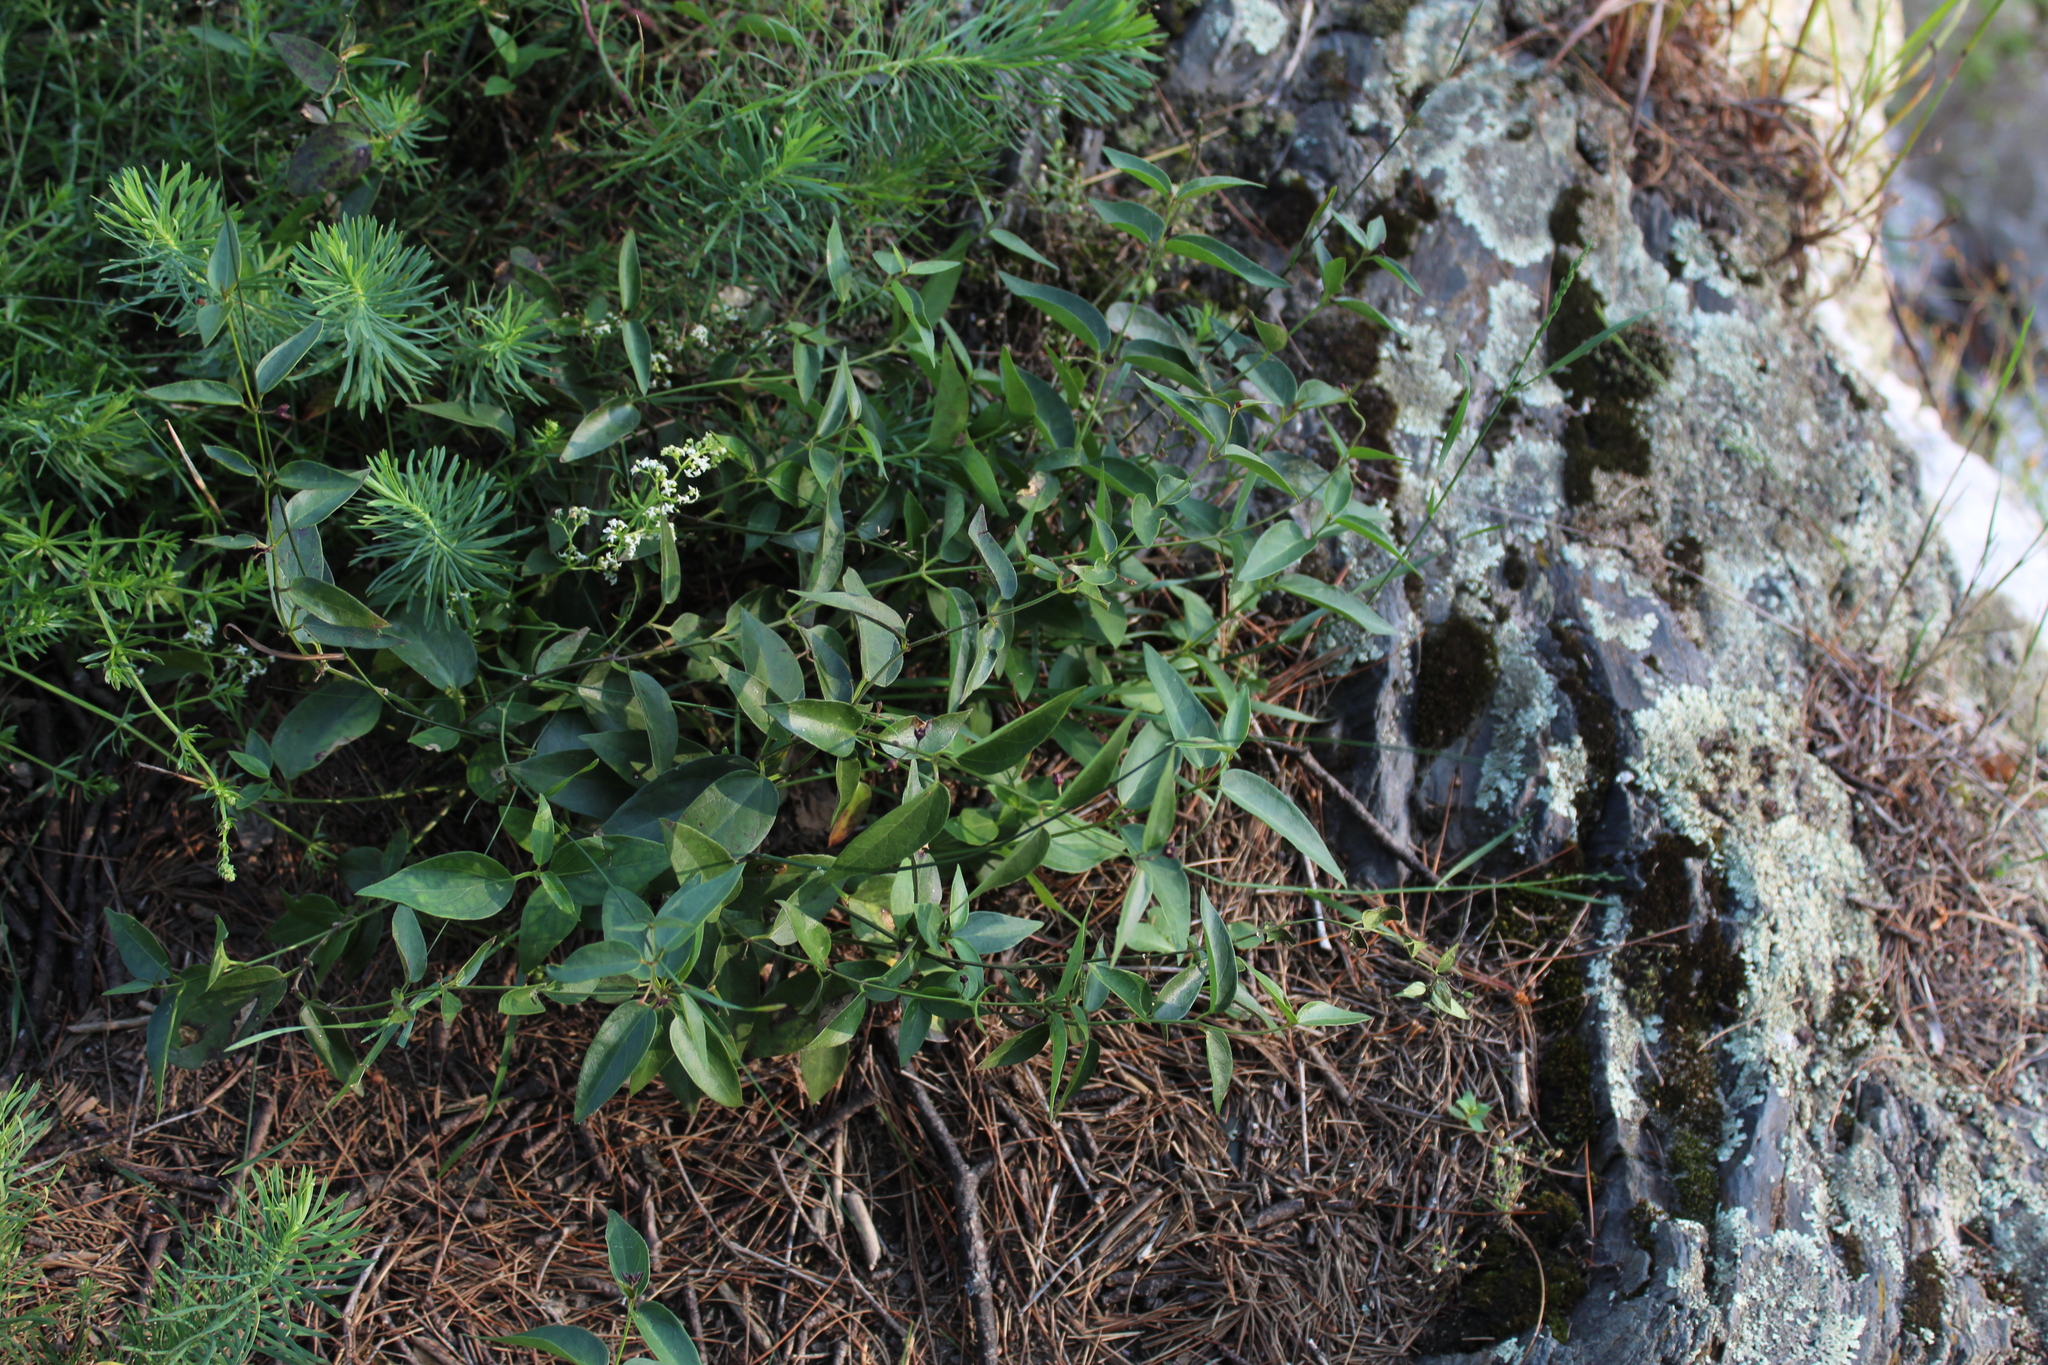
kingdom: Plantae
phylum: Tracheophyta
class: Magnoliopsida
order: Gentianales
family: Apocynaceae
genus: Vincetoxicum
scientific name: Vincetoxicum nigrum
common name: Black swallow-wort
